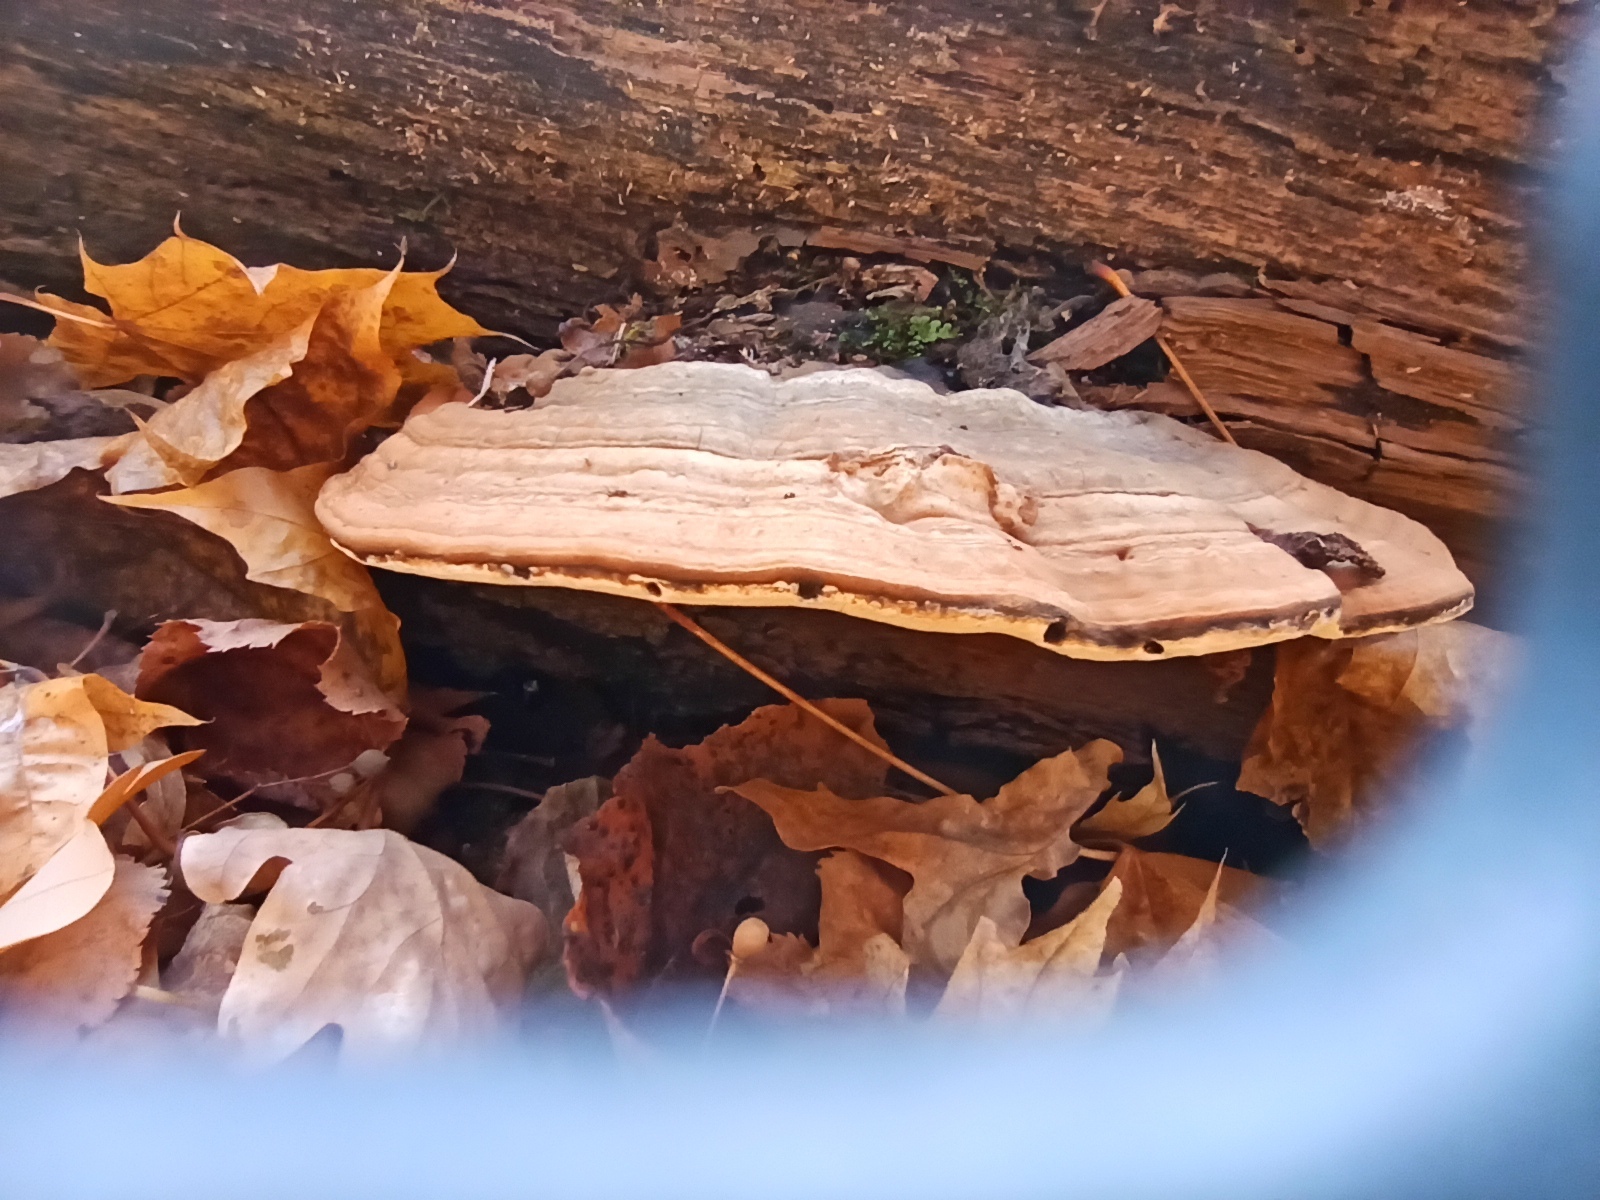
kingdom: Fungi
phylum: Basidiomycota
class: Agaricomycetes
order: Polyporales
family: Polyporaceae
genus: Ganoderma
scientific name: Ganoderma applanatum
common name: Artist's bracket
